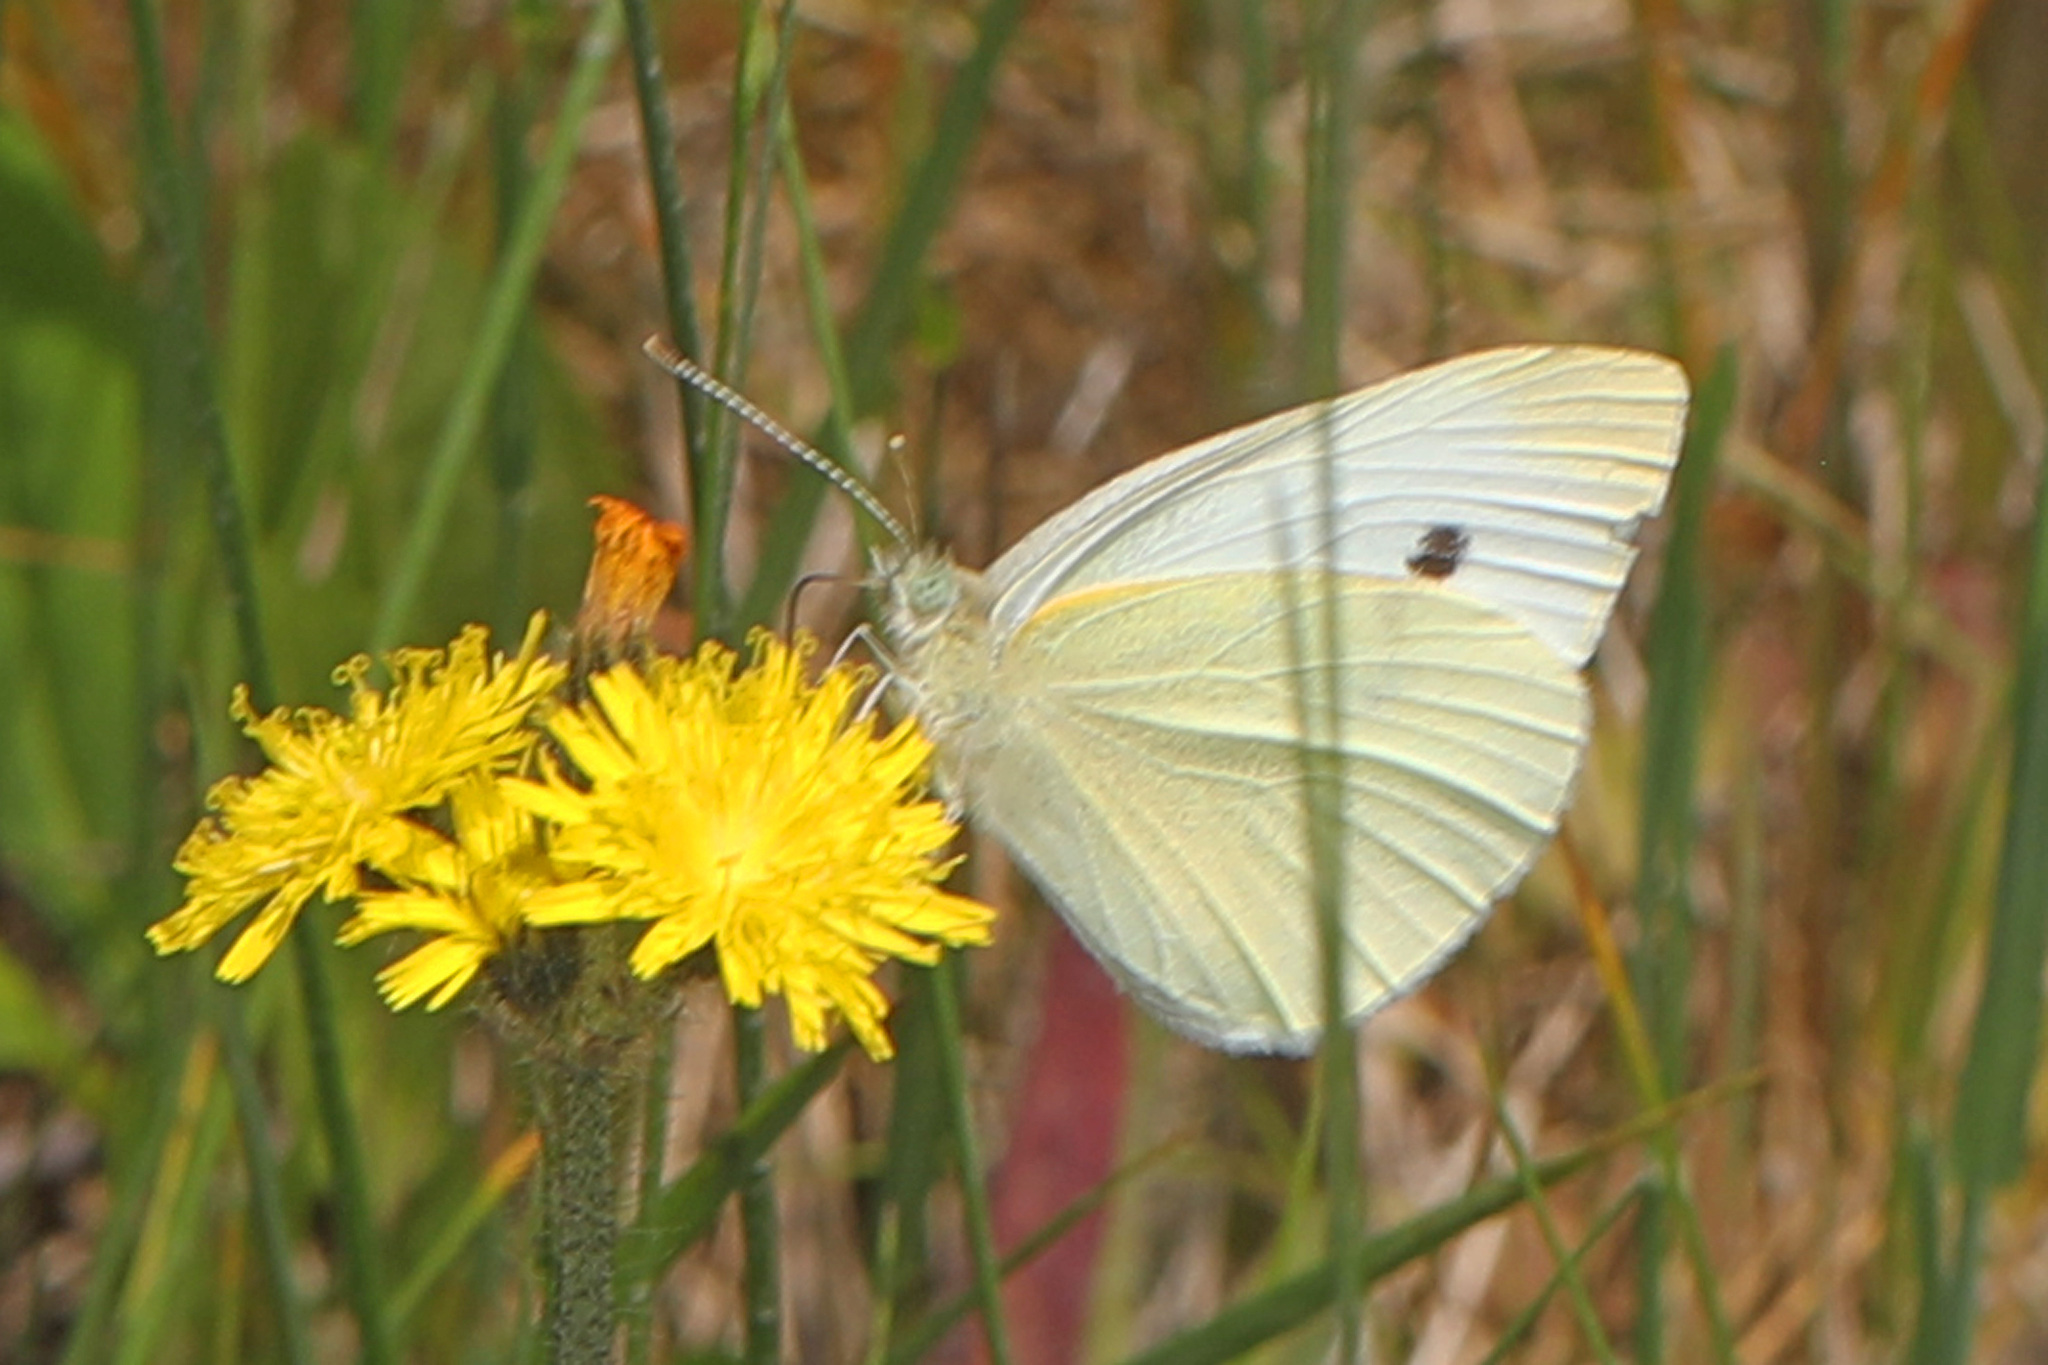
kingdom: Animalia
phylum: Arthropoda
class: Insecta
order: Lepidoptera
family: Pieridae
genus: Pieris
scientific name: Pieris rapae
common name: Small white
